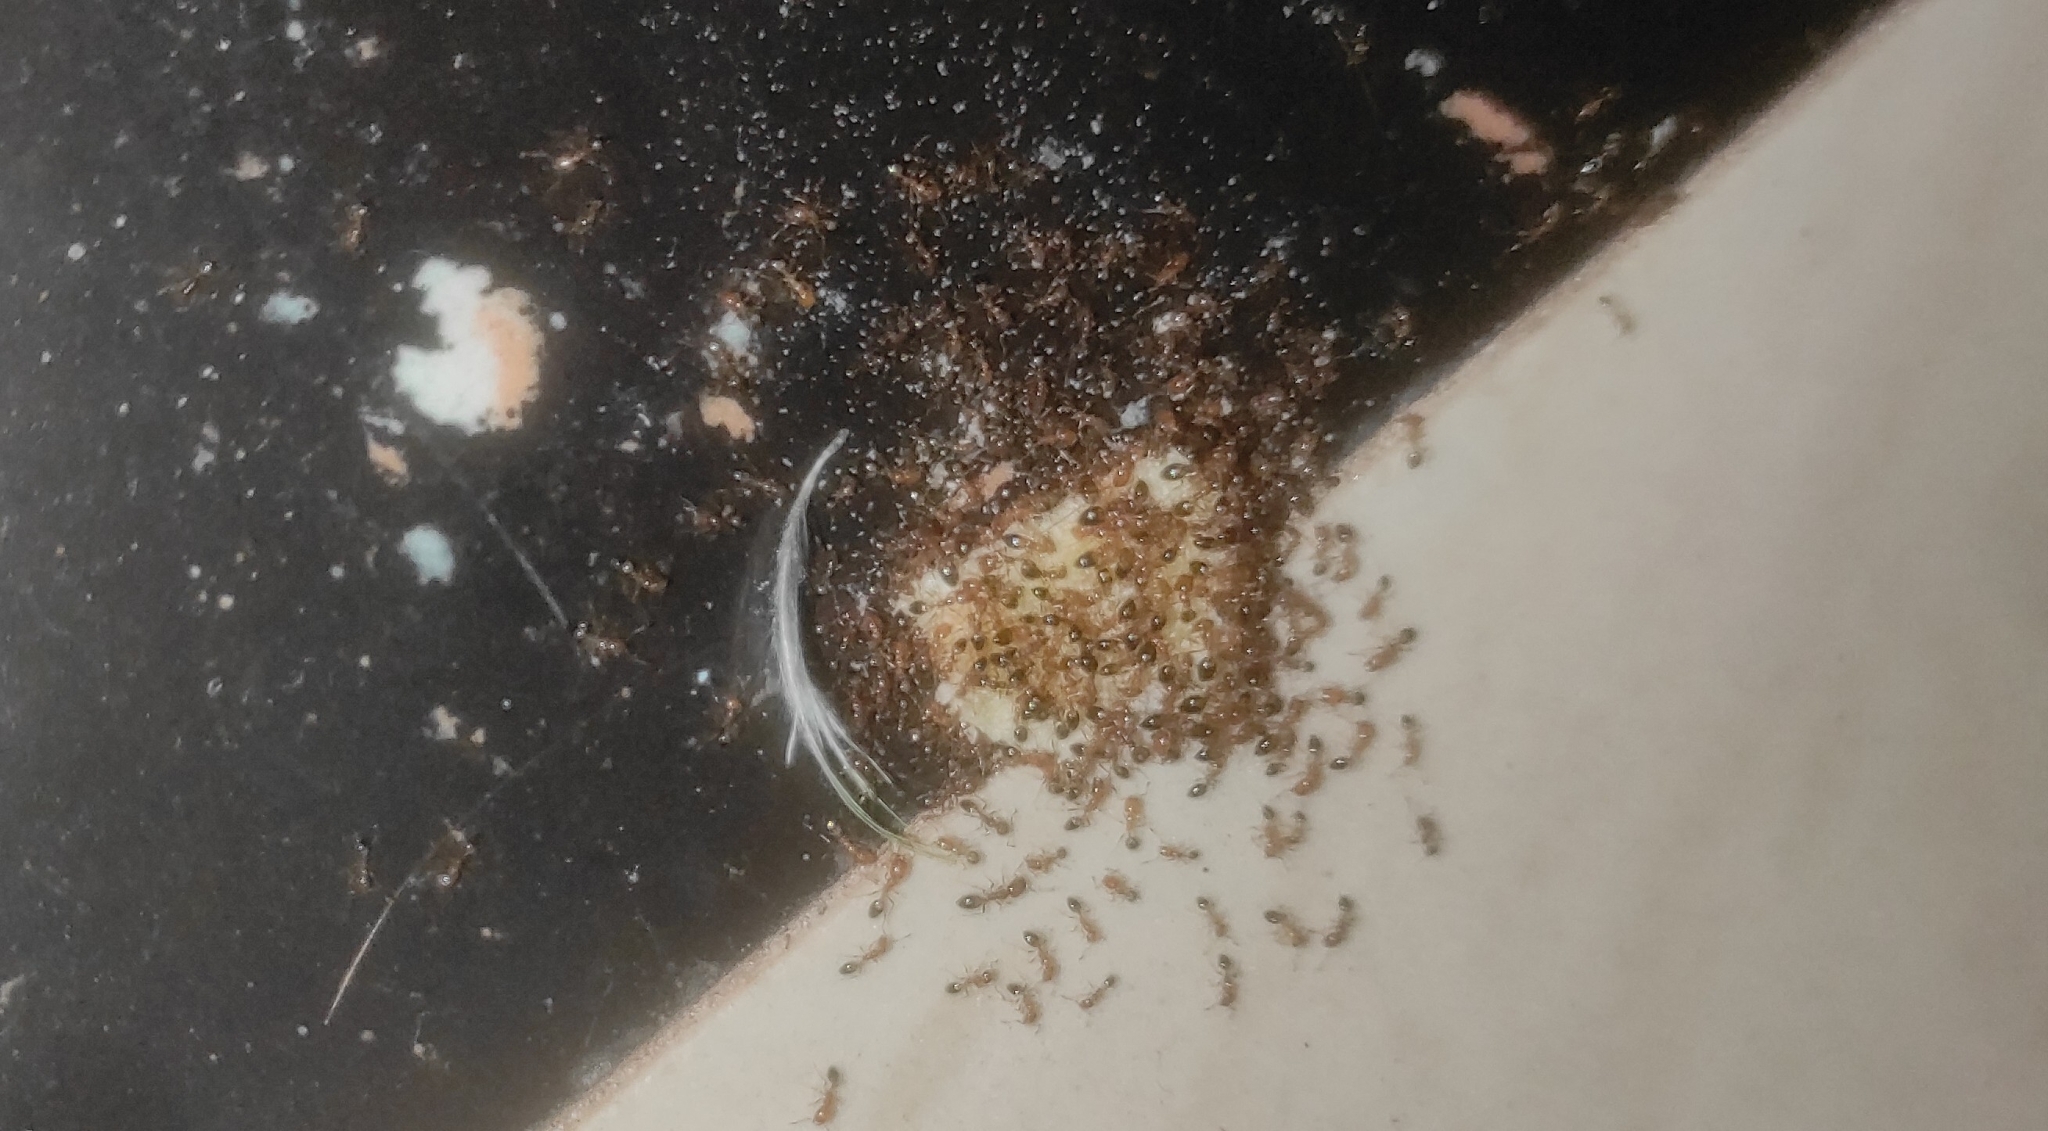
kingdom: Animalia
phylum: Arthropoda
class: Insecta
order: Hymenoptera
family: Formicidae
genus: Monomorium
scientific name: Monomorium destructor
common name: Destructive trailing ant
